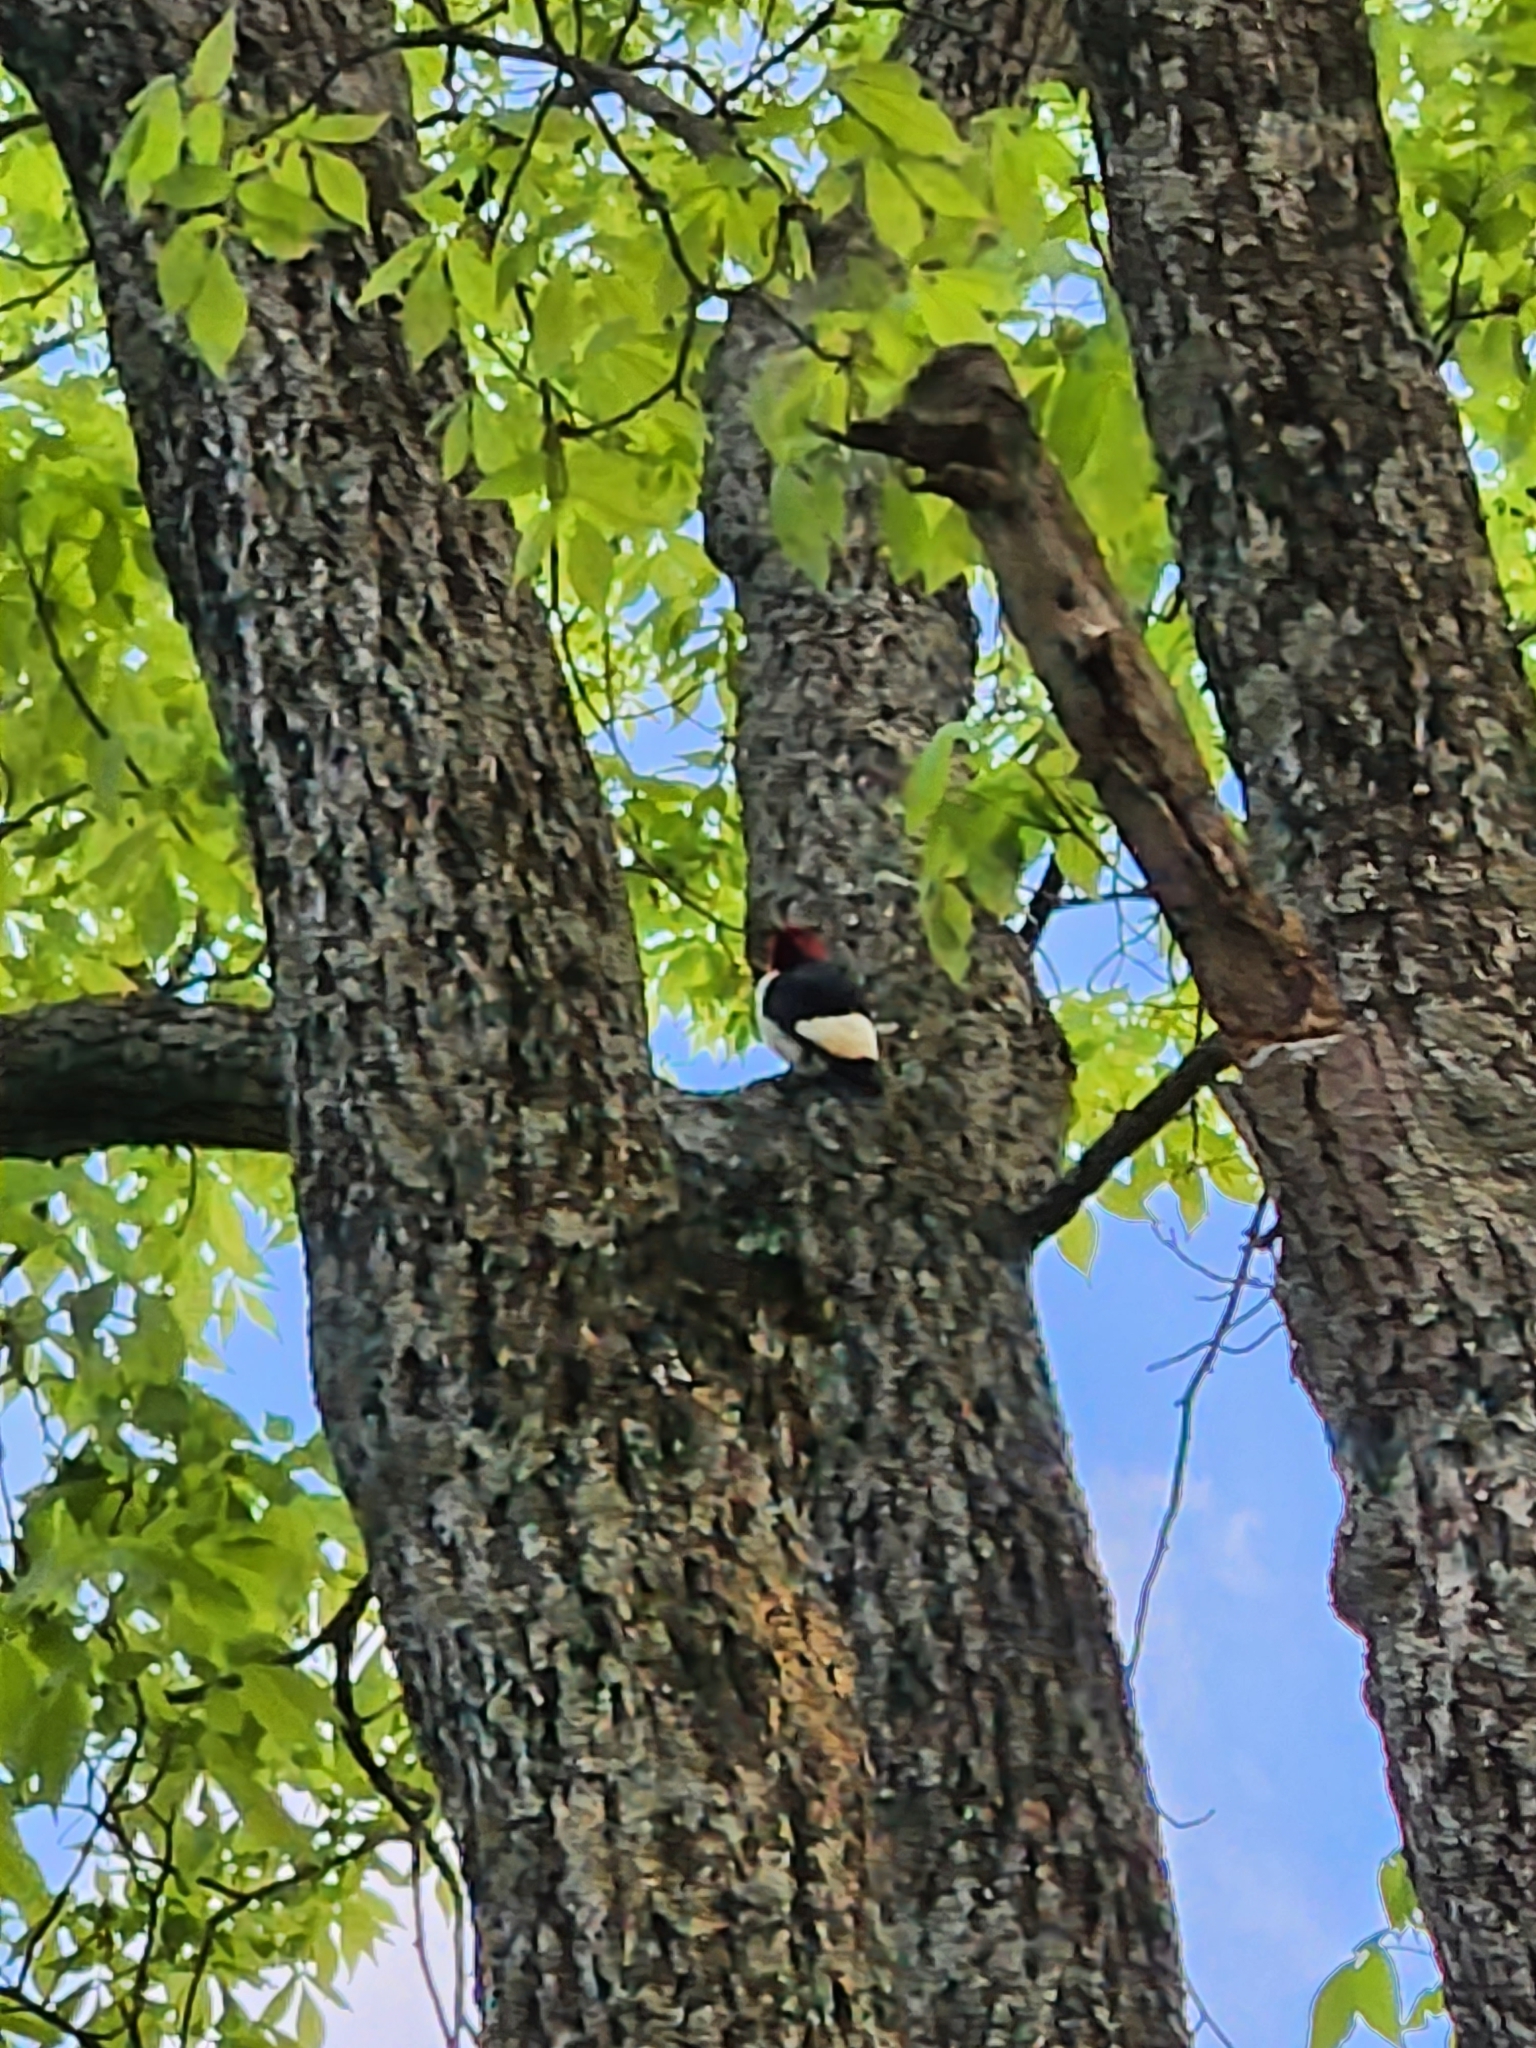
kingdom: Animalia
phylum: Chordata
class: Aves
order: Piciformes
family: Picidae
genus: Melanerpes
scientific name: Melanerpes erythrocephalus
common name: Red-headed woodpecker
